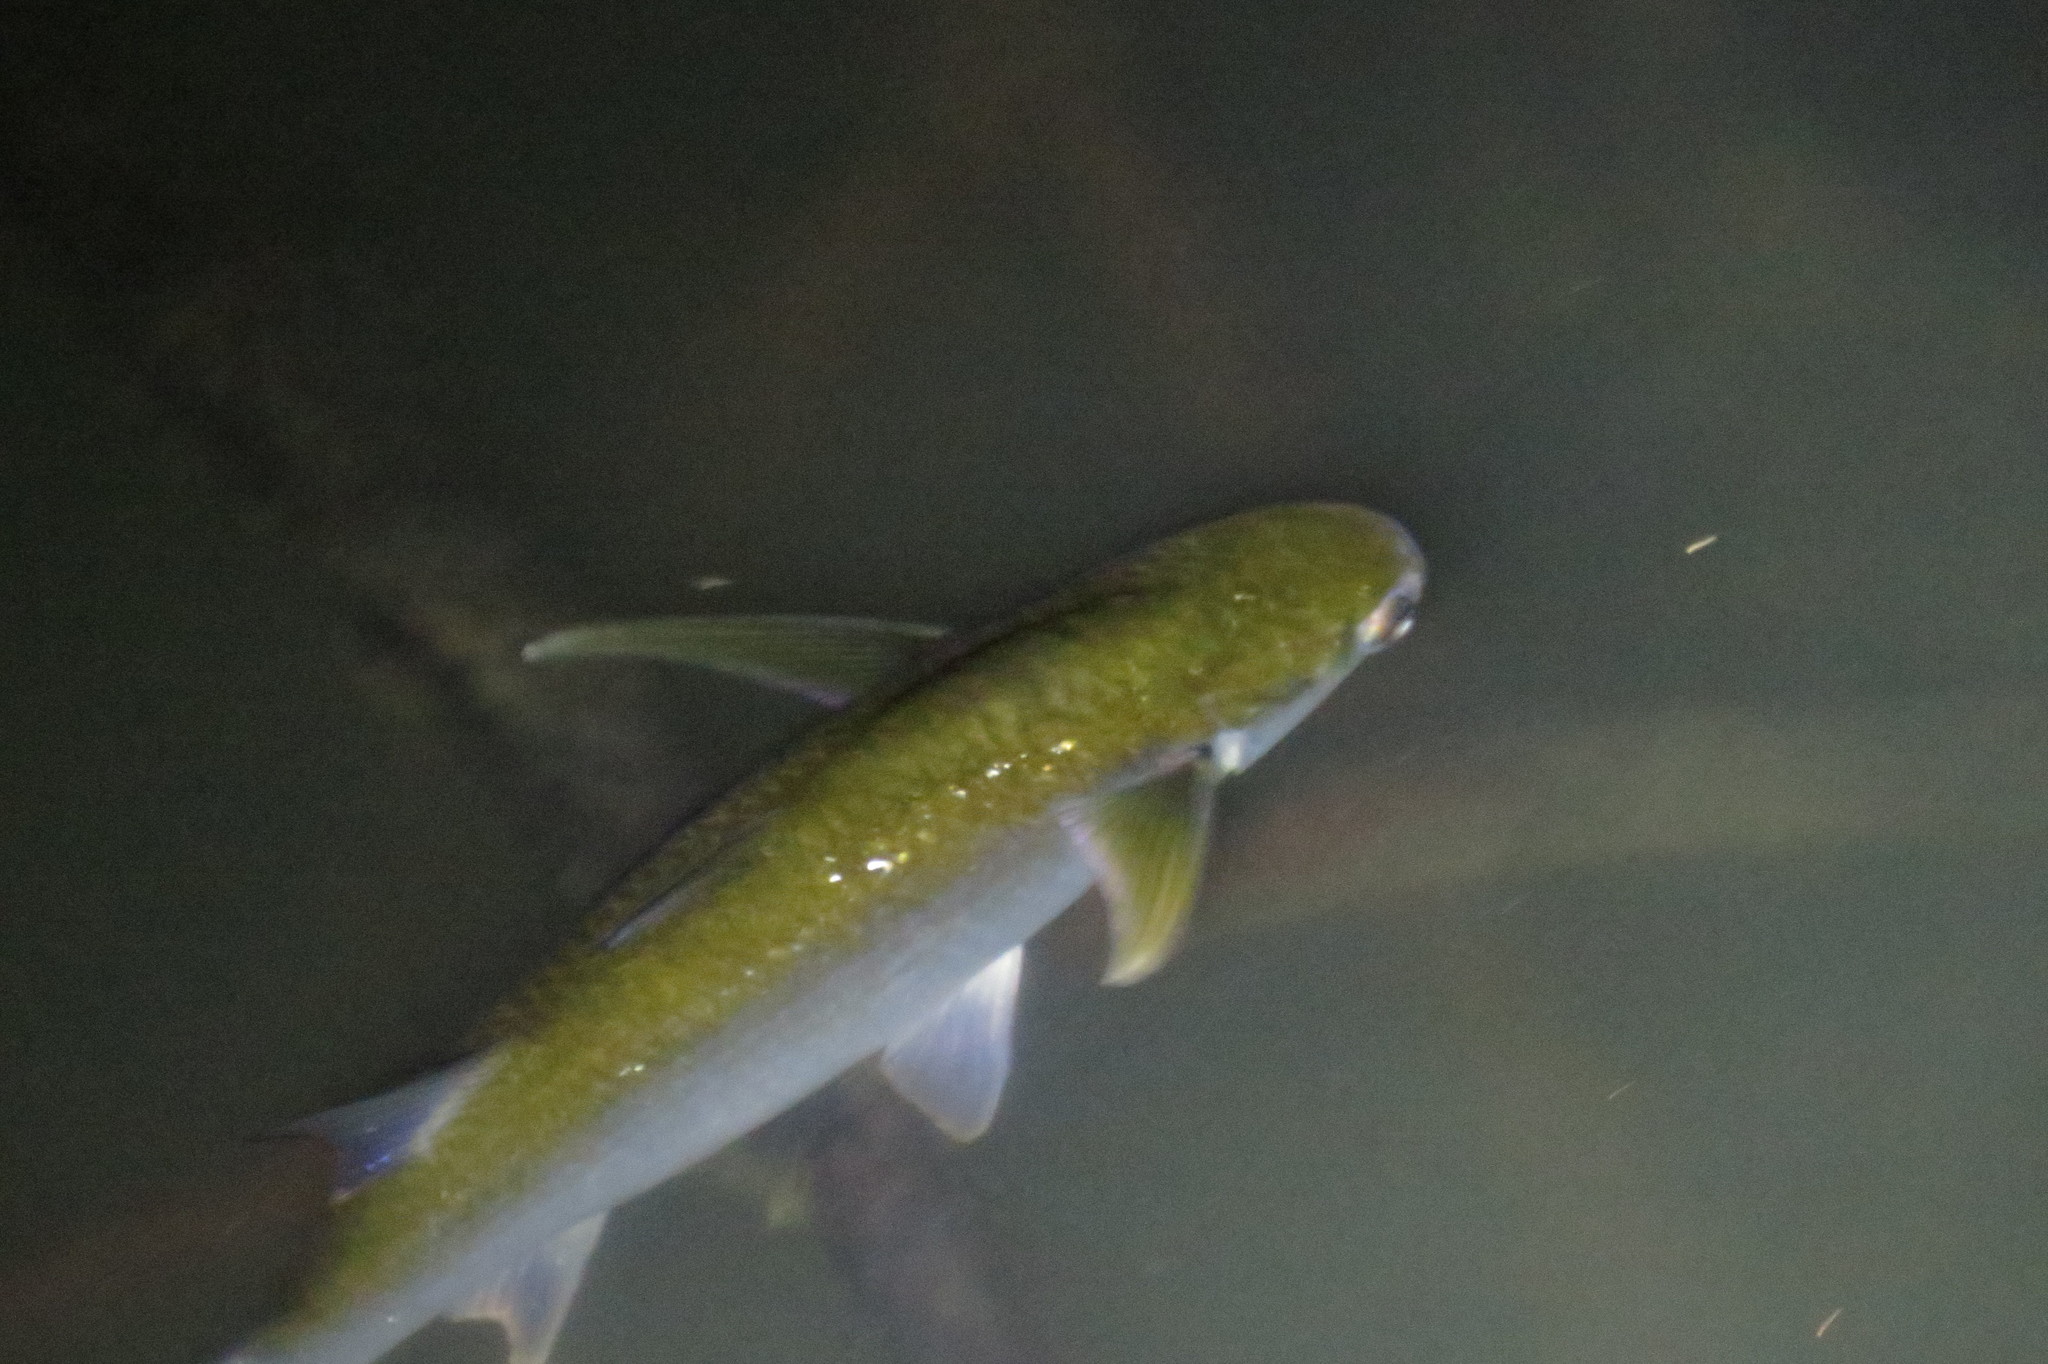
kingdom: Animalia
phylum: Chordata
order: Mugiliformes
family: Mugilidae
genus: Crenimugil
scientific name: Crenimugil buchanani
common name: Bluetail mullet
